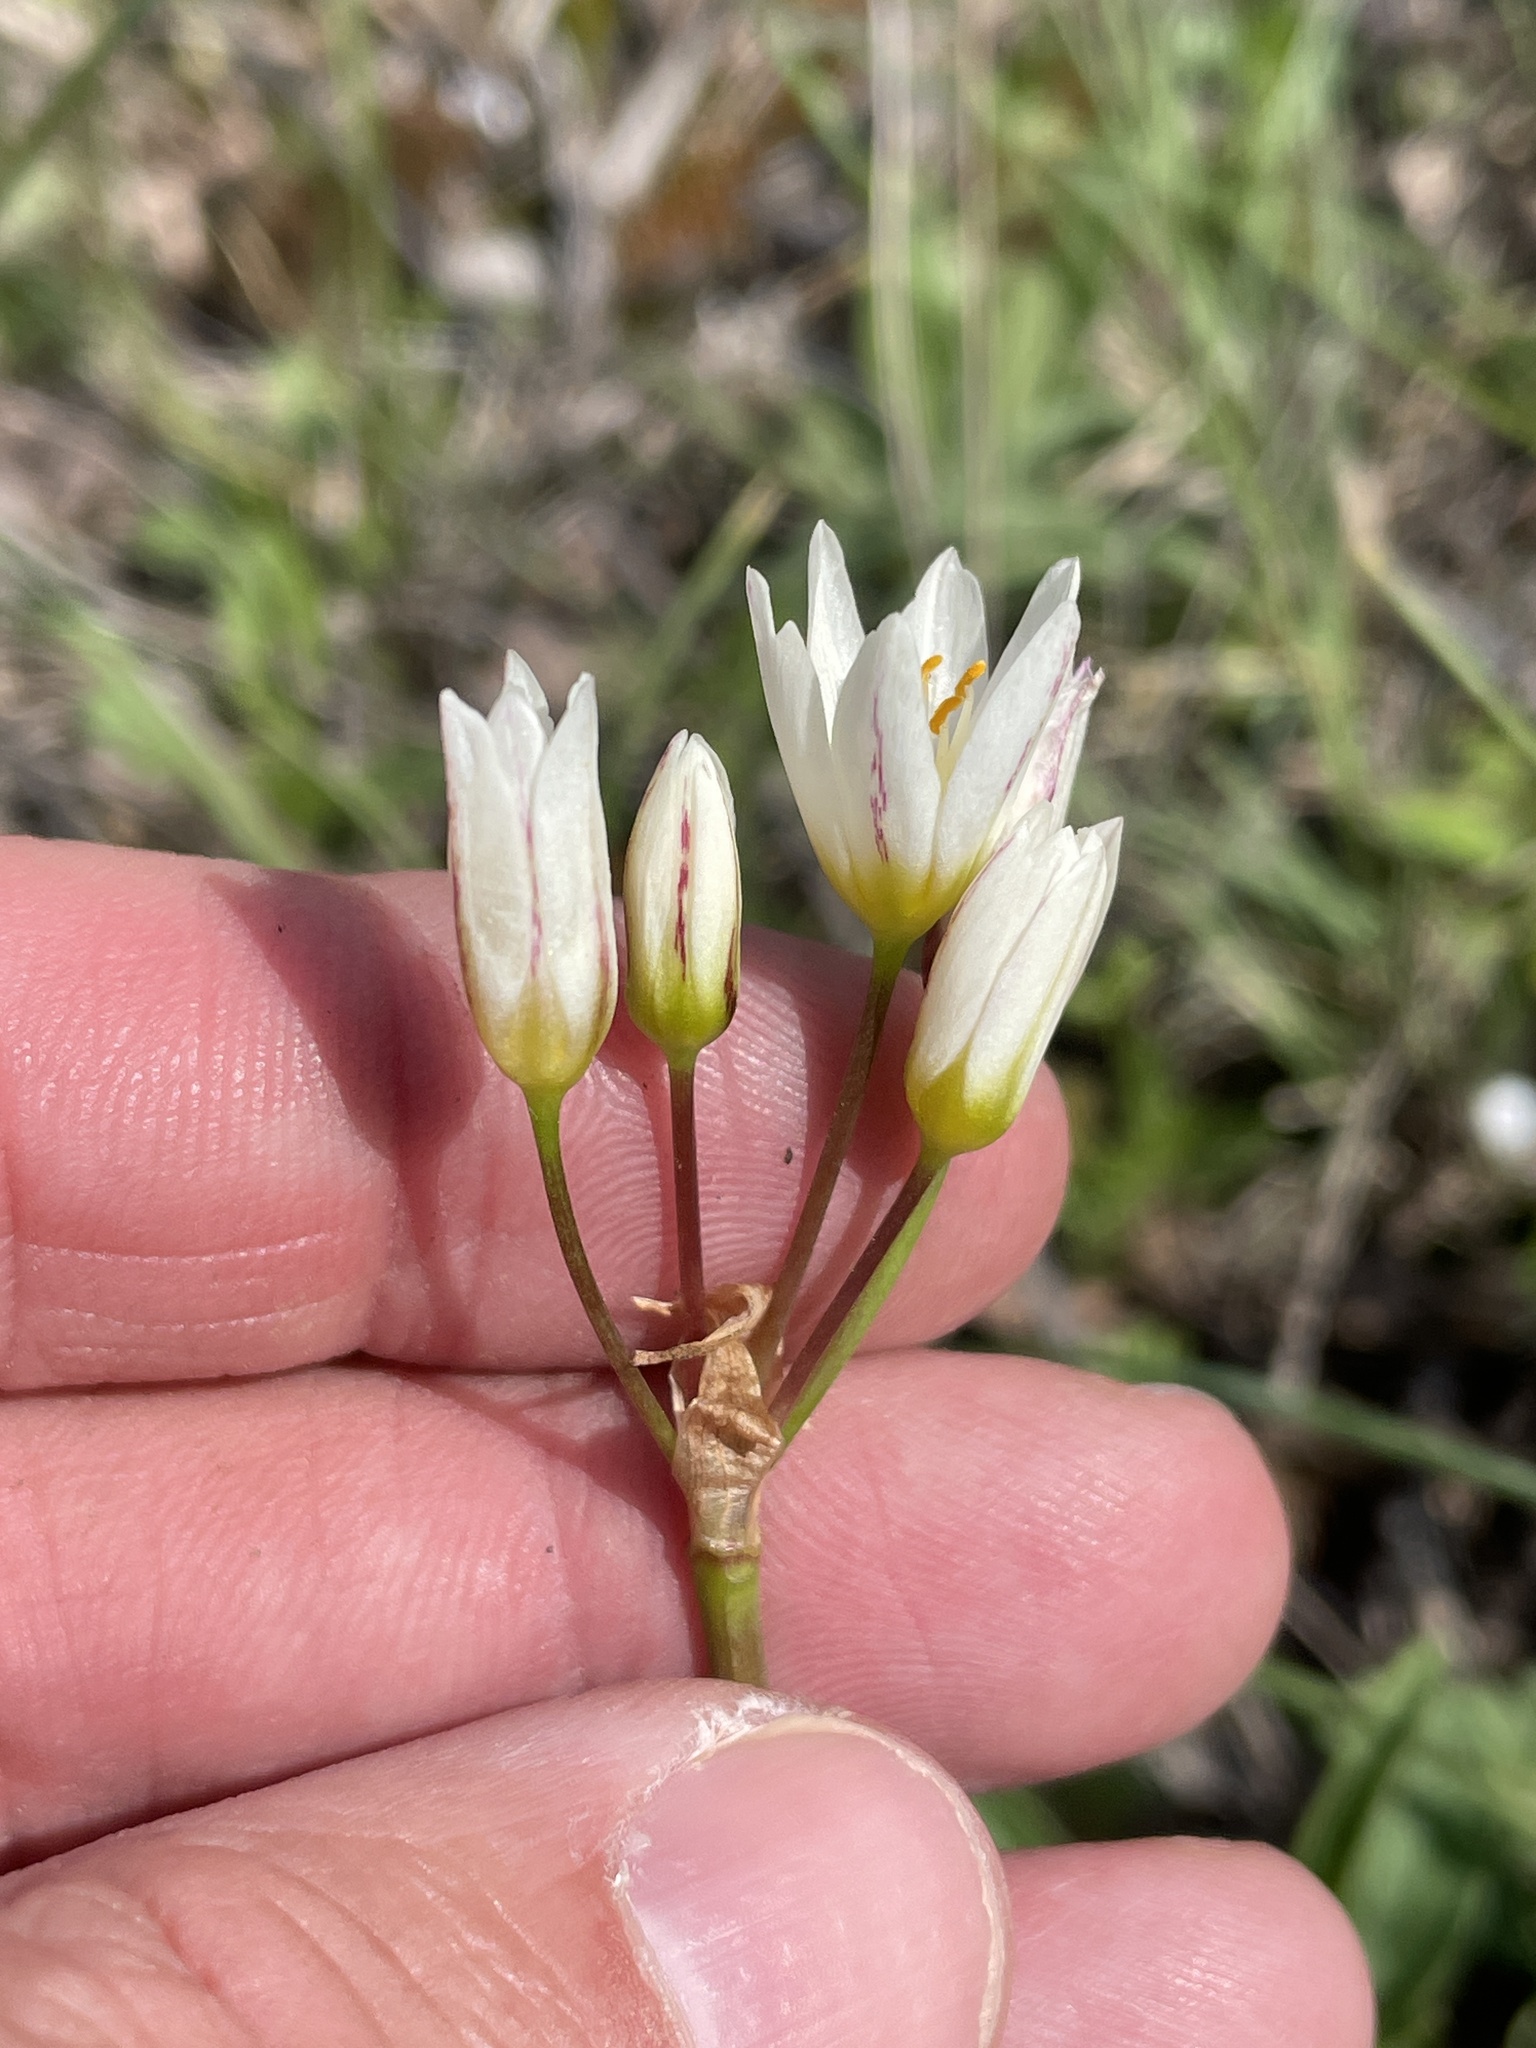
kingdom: Plantae
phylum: Tracheophyta
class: Liliopsida
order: Asparagales
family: Amaryllidaceae
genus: Nothoscordum
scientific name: Nothoscordum bivalve
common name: Crow-poison
